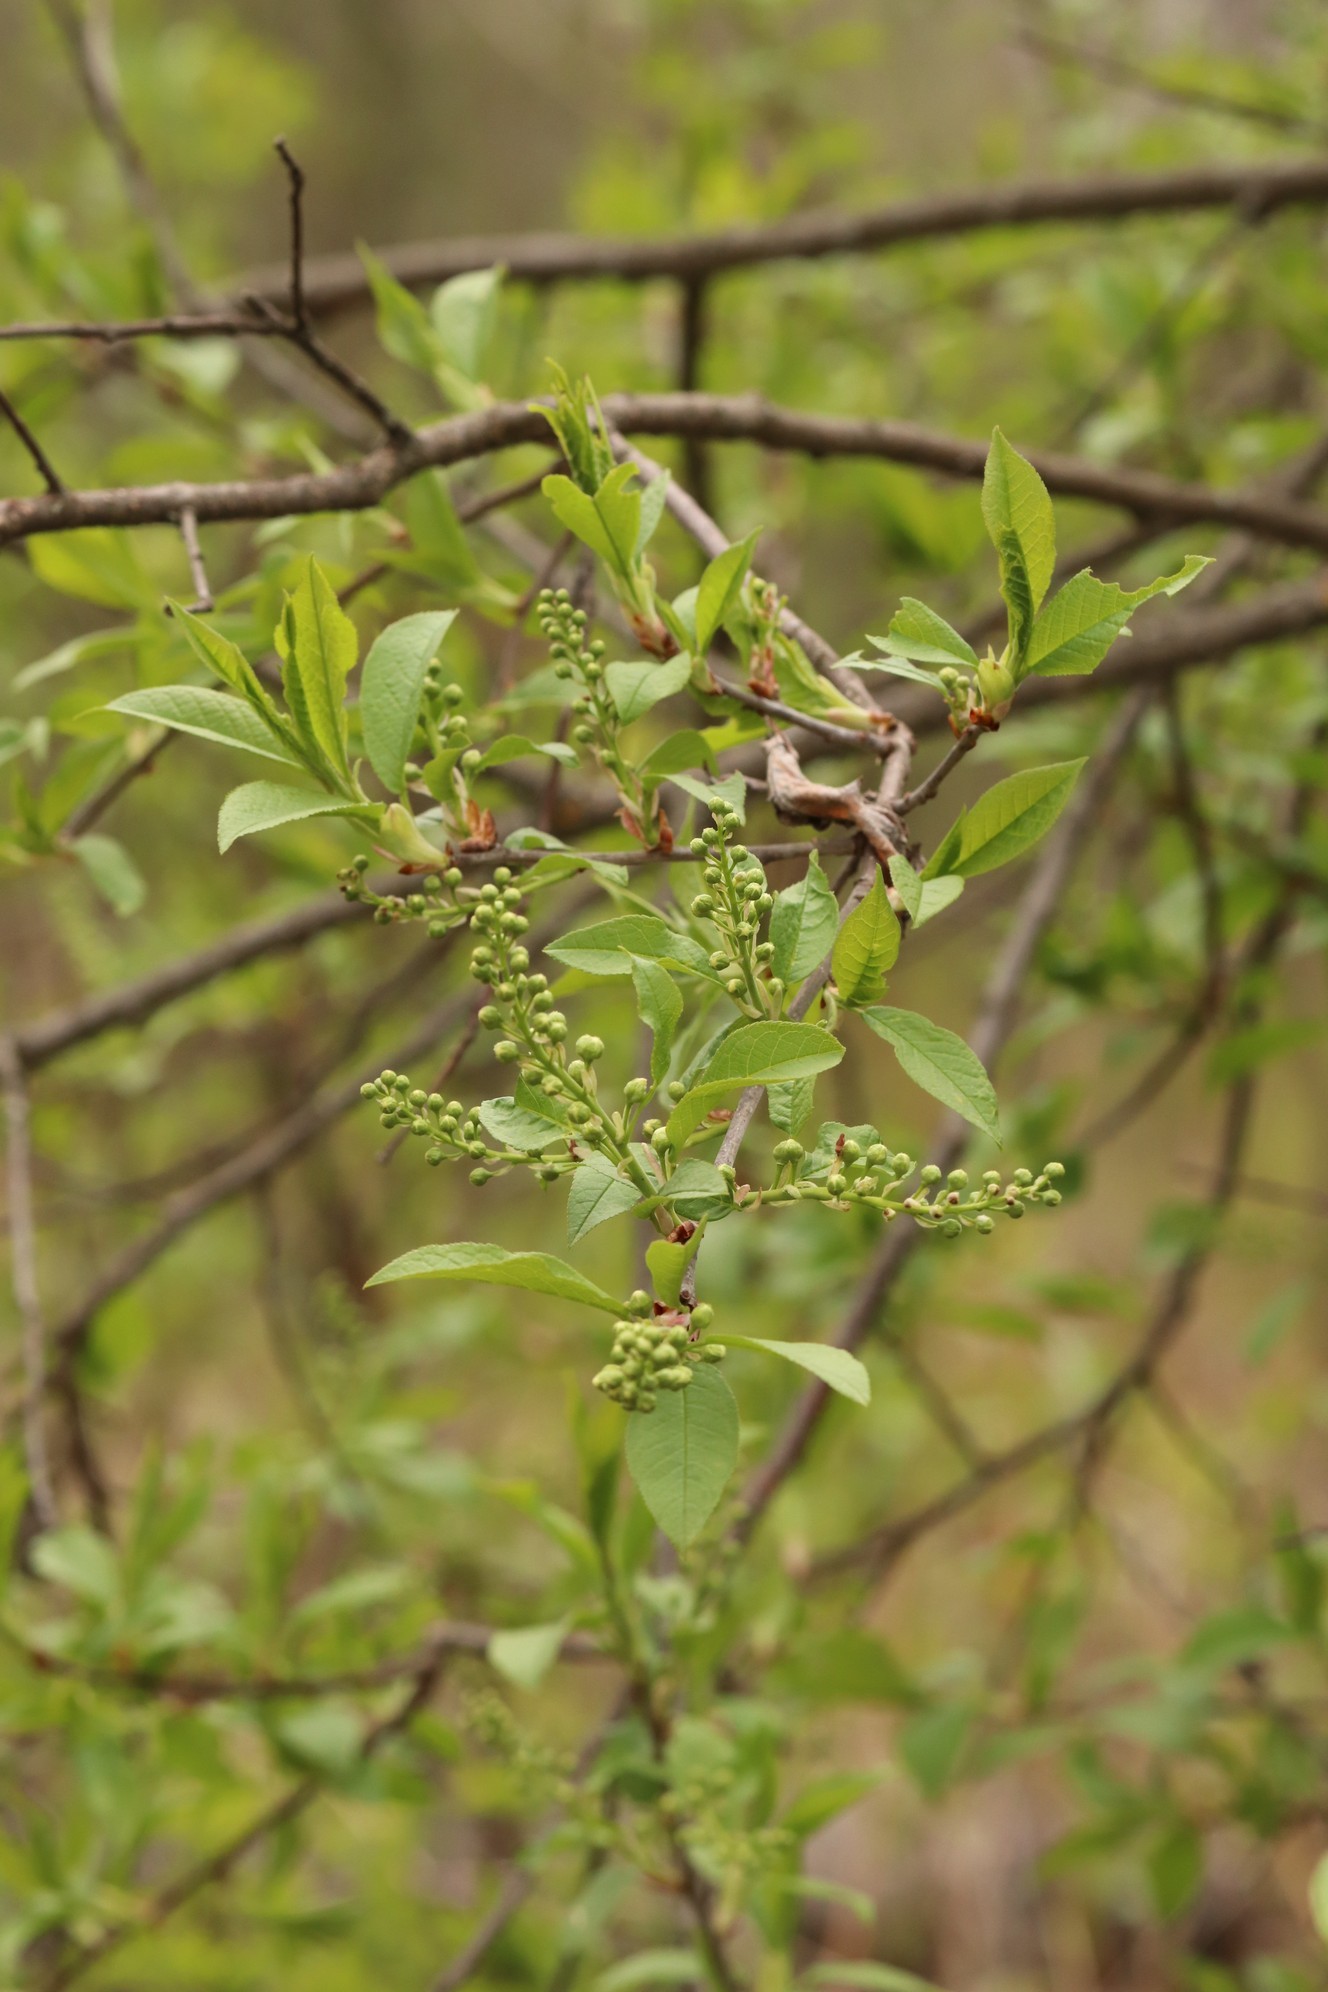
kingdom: Plantae
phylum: Tracheophyta
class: Magnoliopsida
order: Rosales
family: Rosaceae
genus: Prunus
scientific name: Prunus padus
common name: Bird cherry
